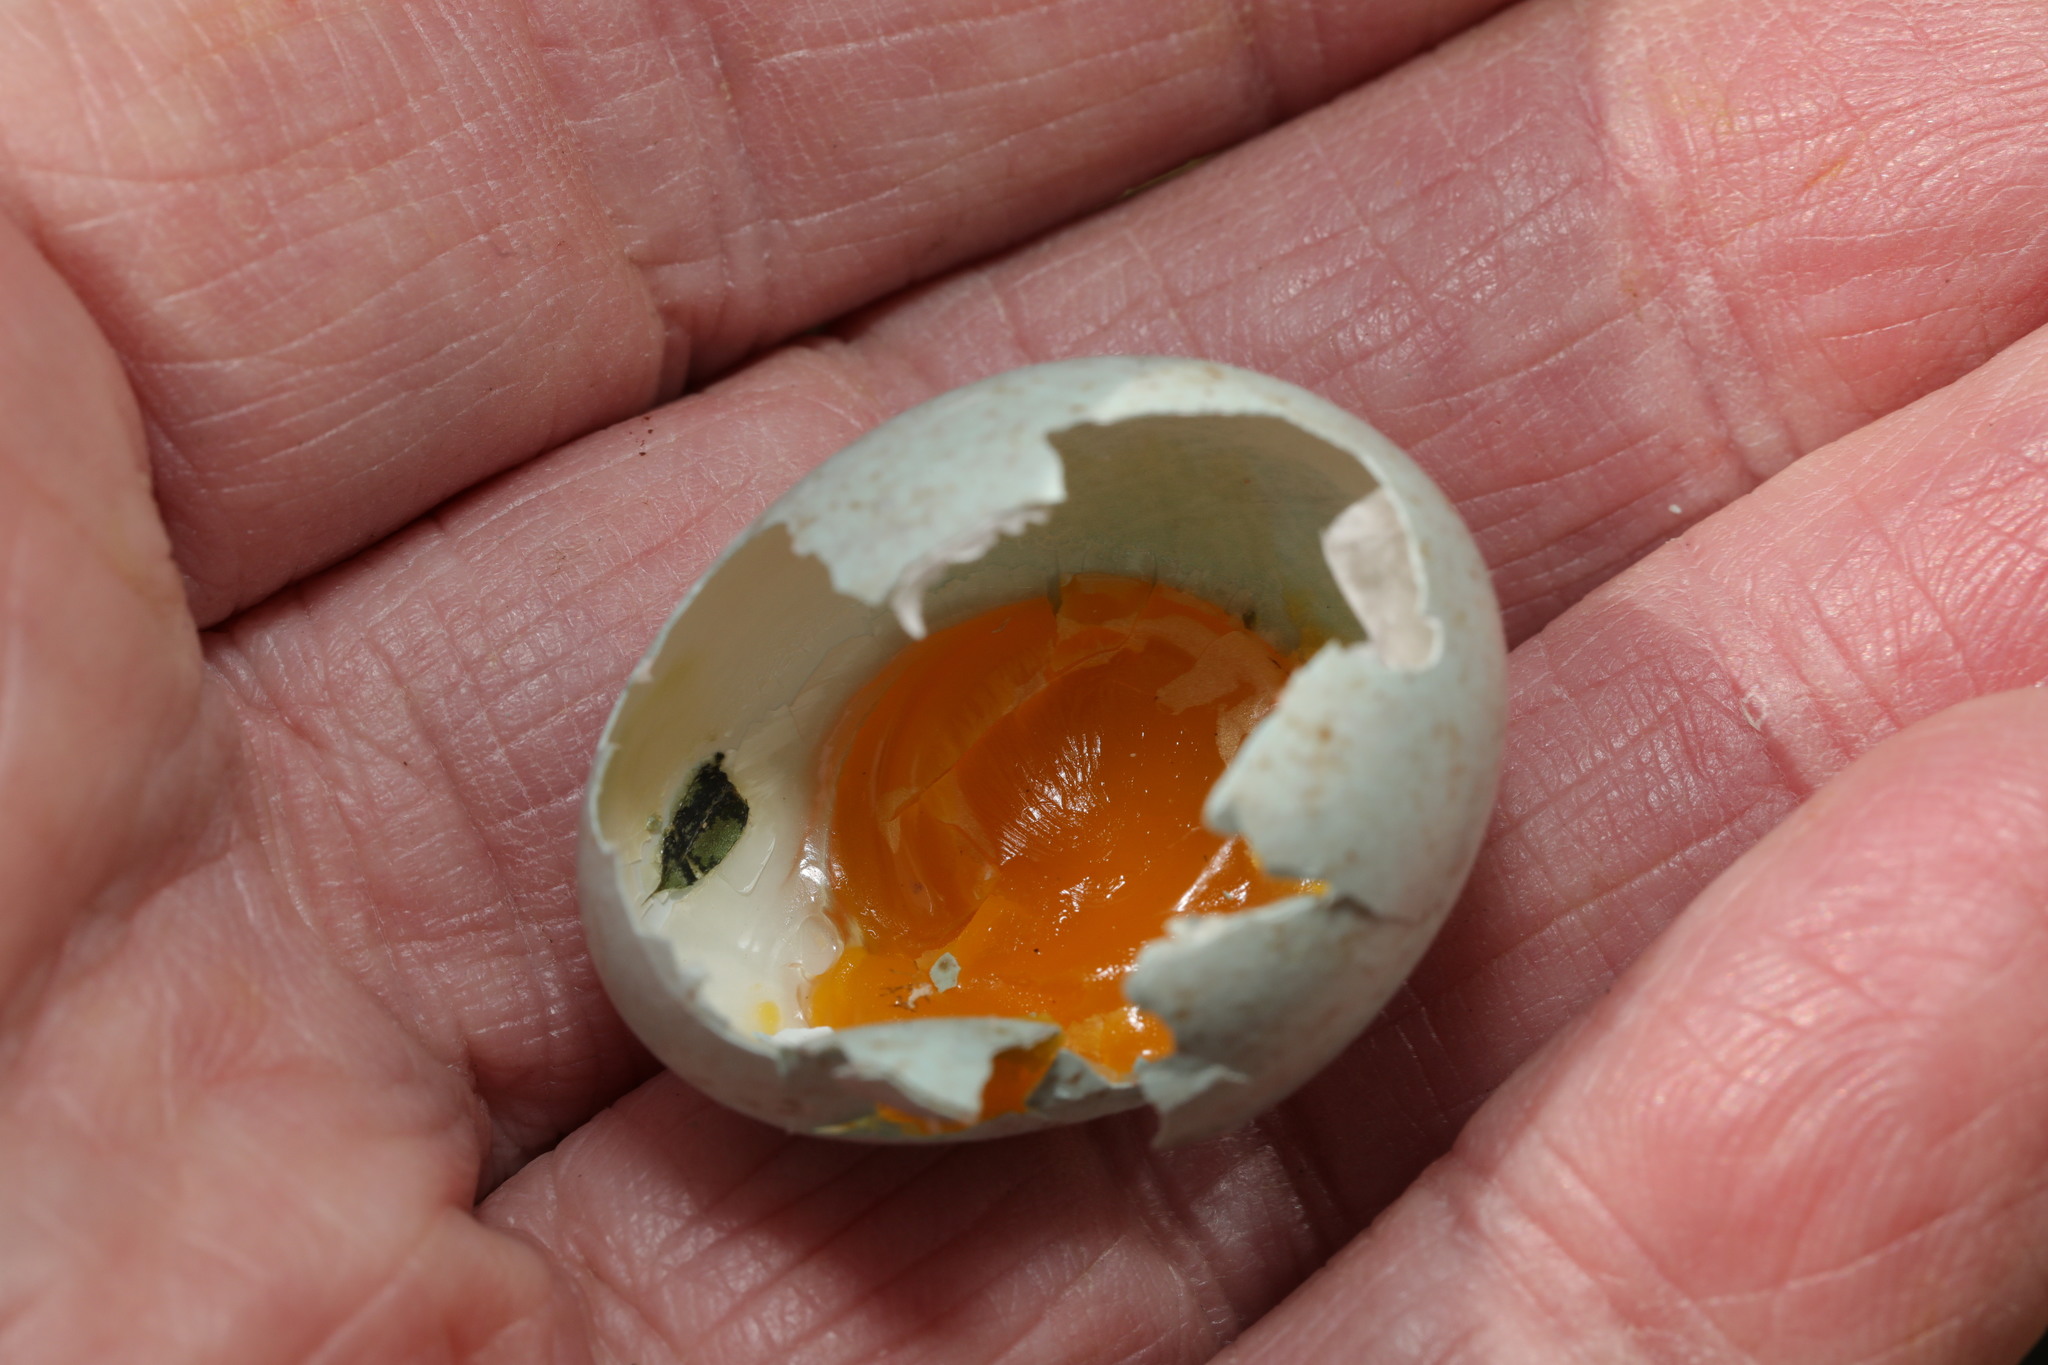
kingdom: Animalia
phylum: Chordata
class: Aves
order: Passeriformes
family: Turdidae
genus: Turdus
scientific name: Turdus merula
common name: Common blackbird
